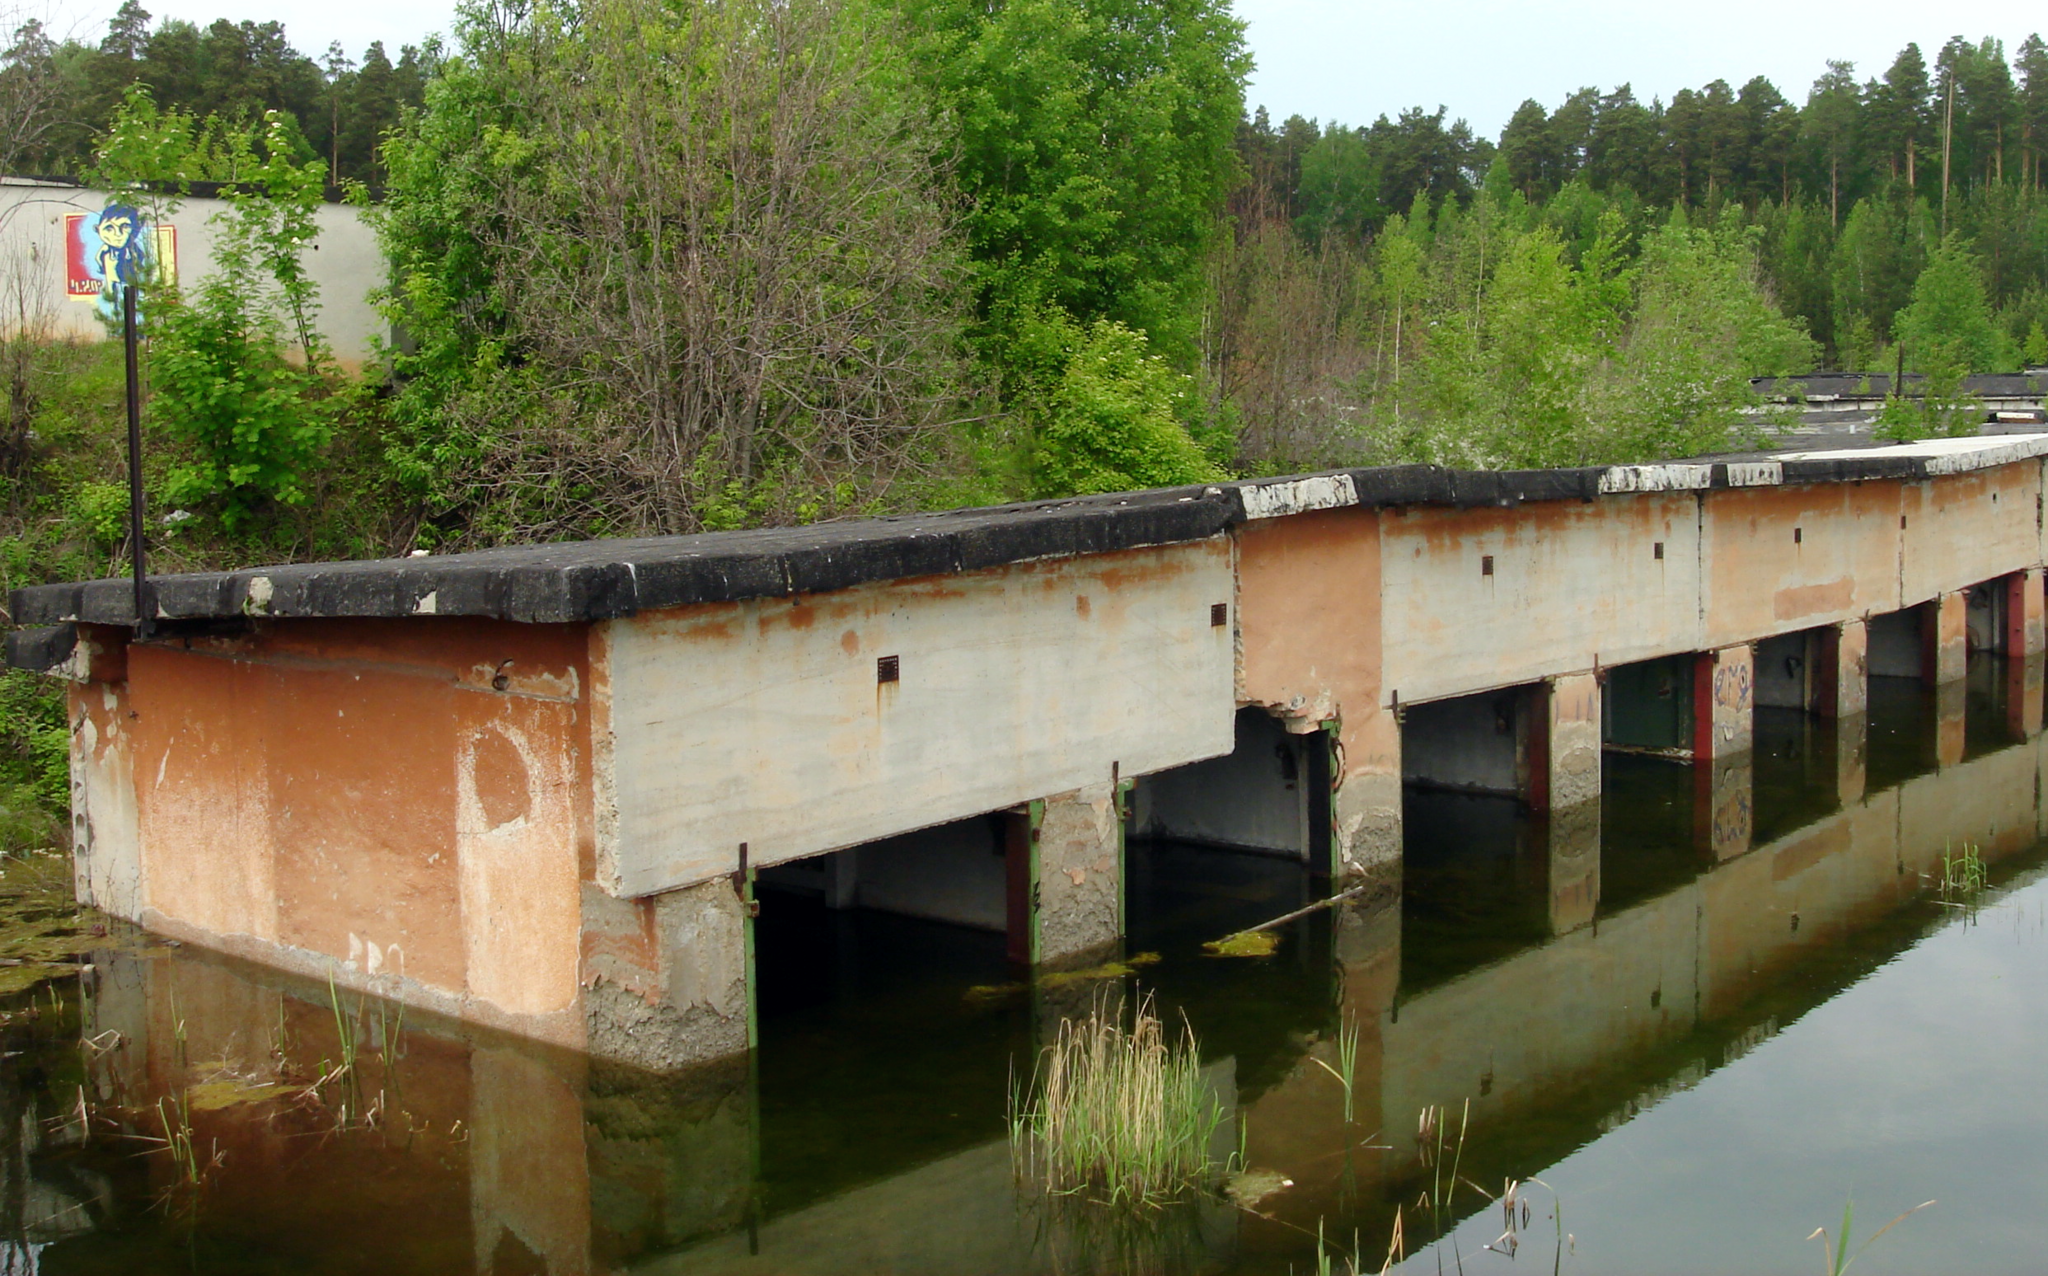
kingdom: Plantae
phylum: Tracheophyta
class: Liliopsida
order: Poales
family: Poaceae
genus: Phragmites
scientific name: Phragmites australis
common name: Common reed
